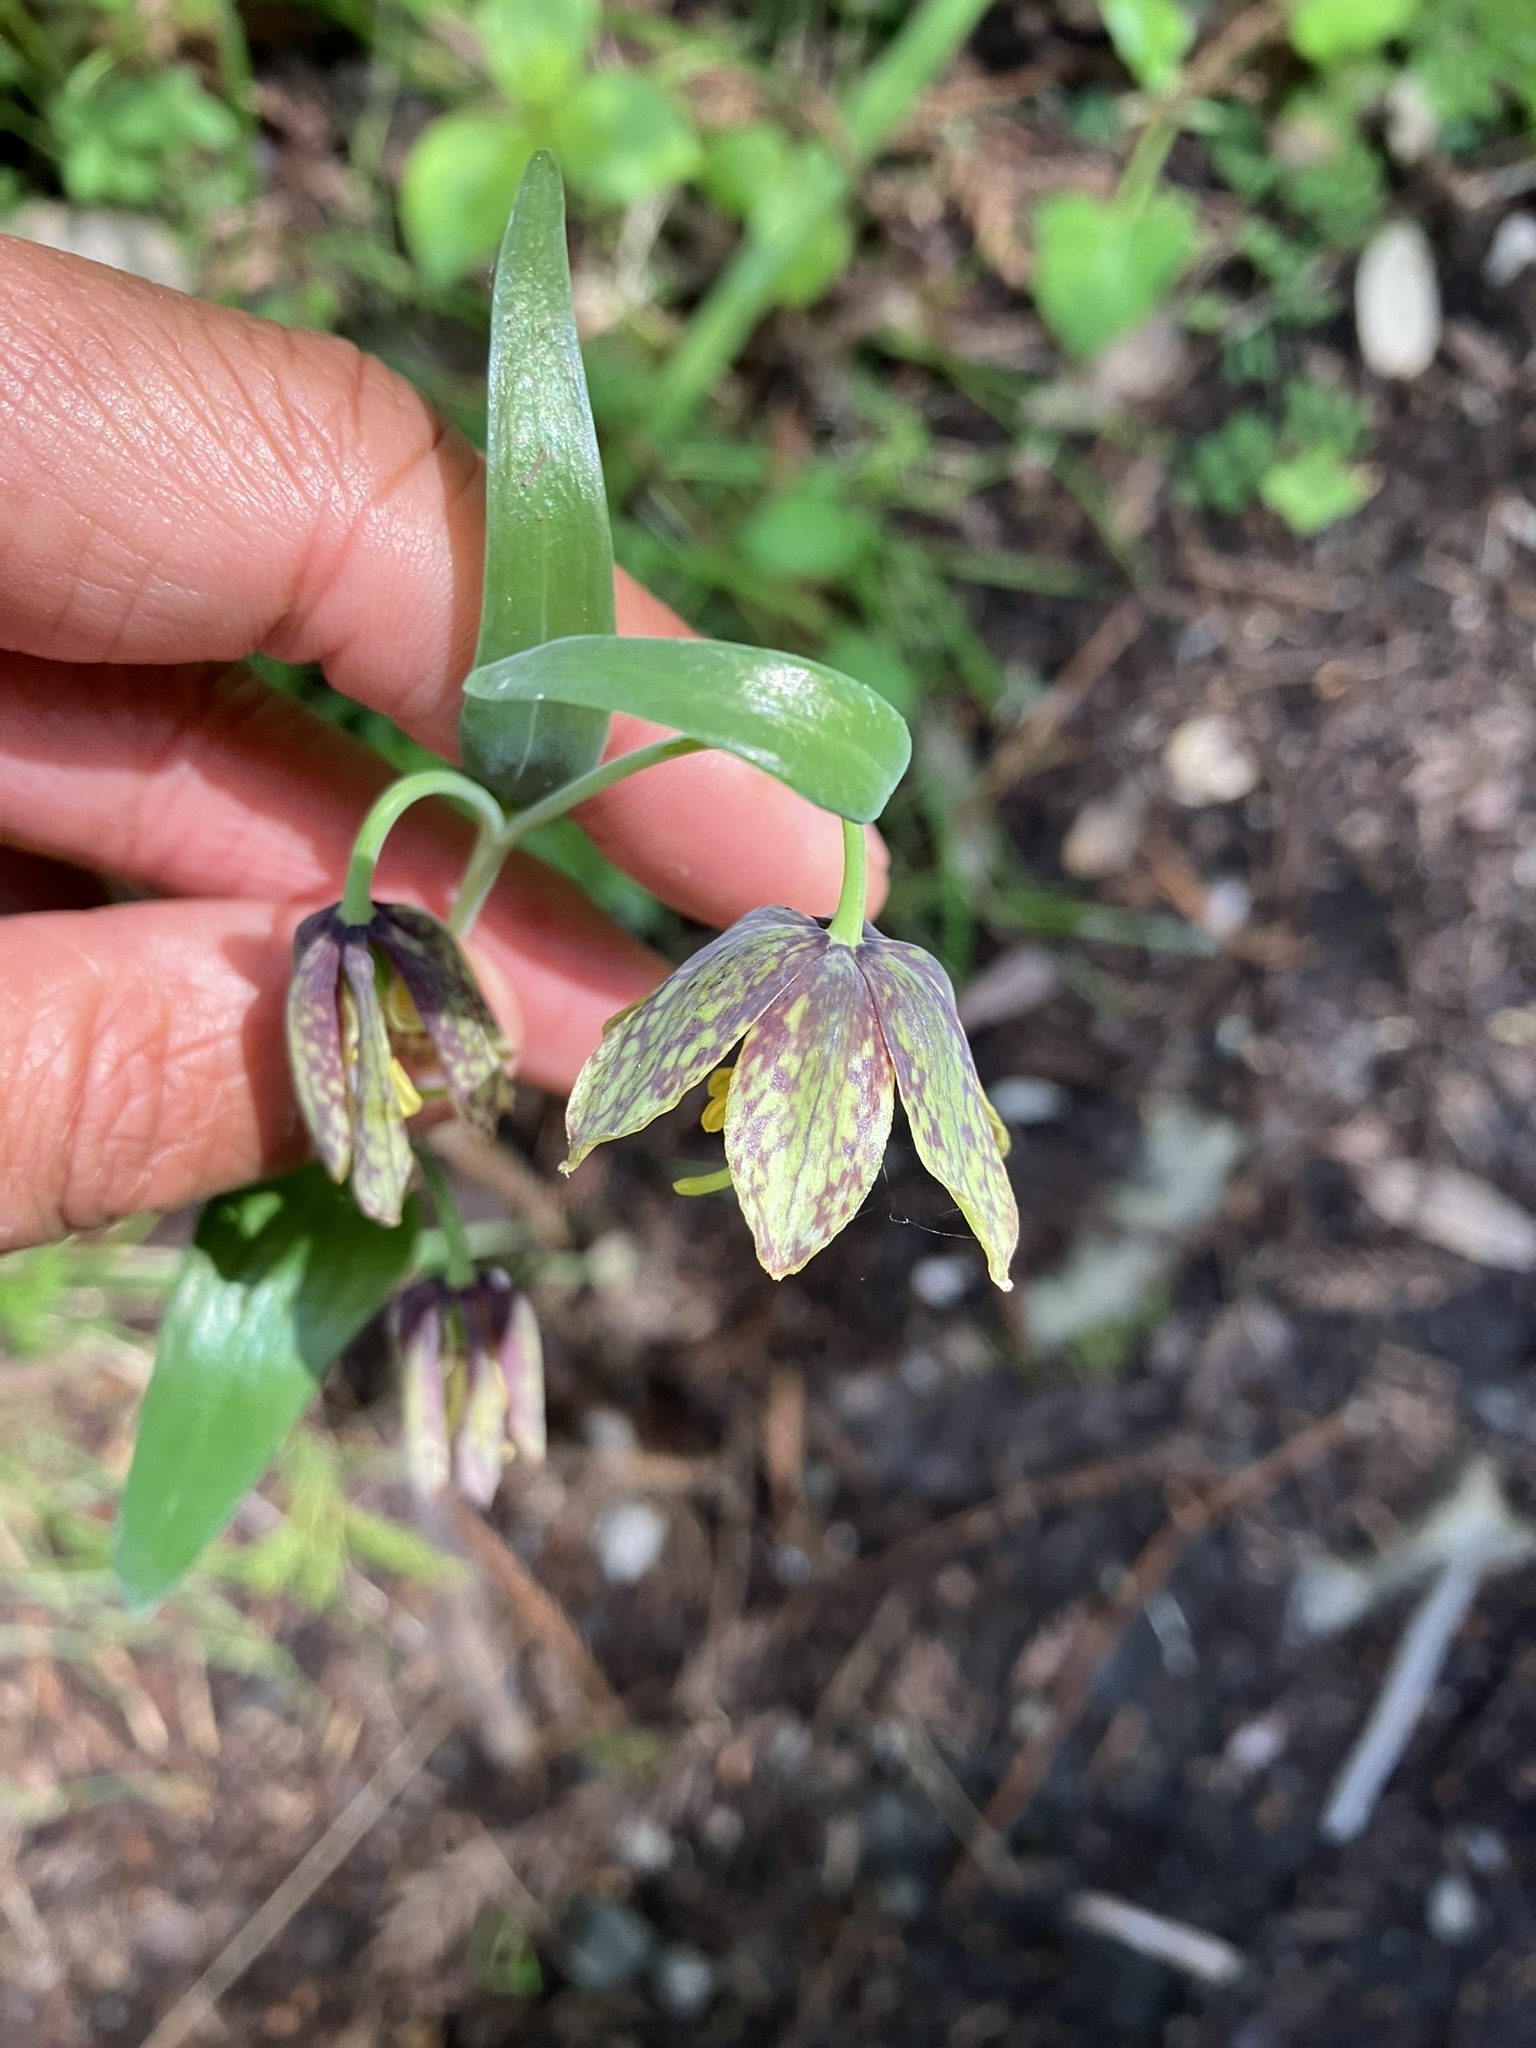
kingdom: Plantae
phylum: Tracheophyta
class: Liliopsida
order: Liliales
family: Liliaceae
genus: Fritillaria
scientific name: Fritillaria affinis
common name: Ojai fritillary
